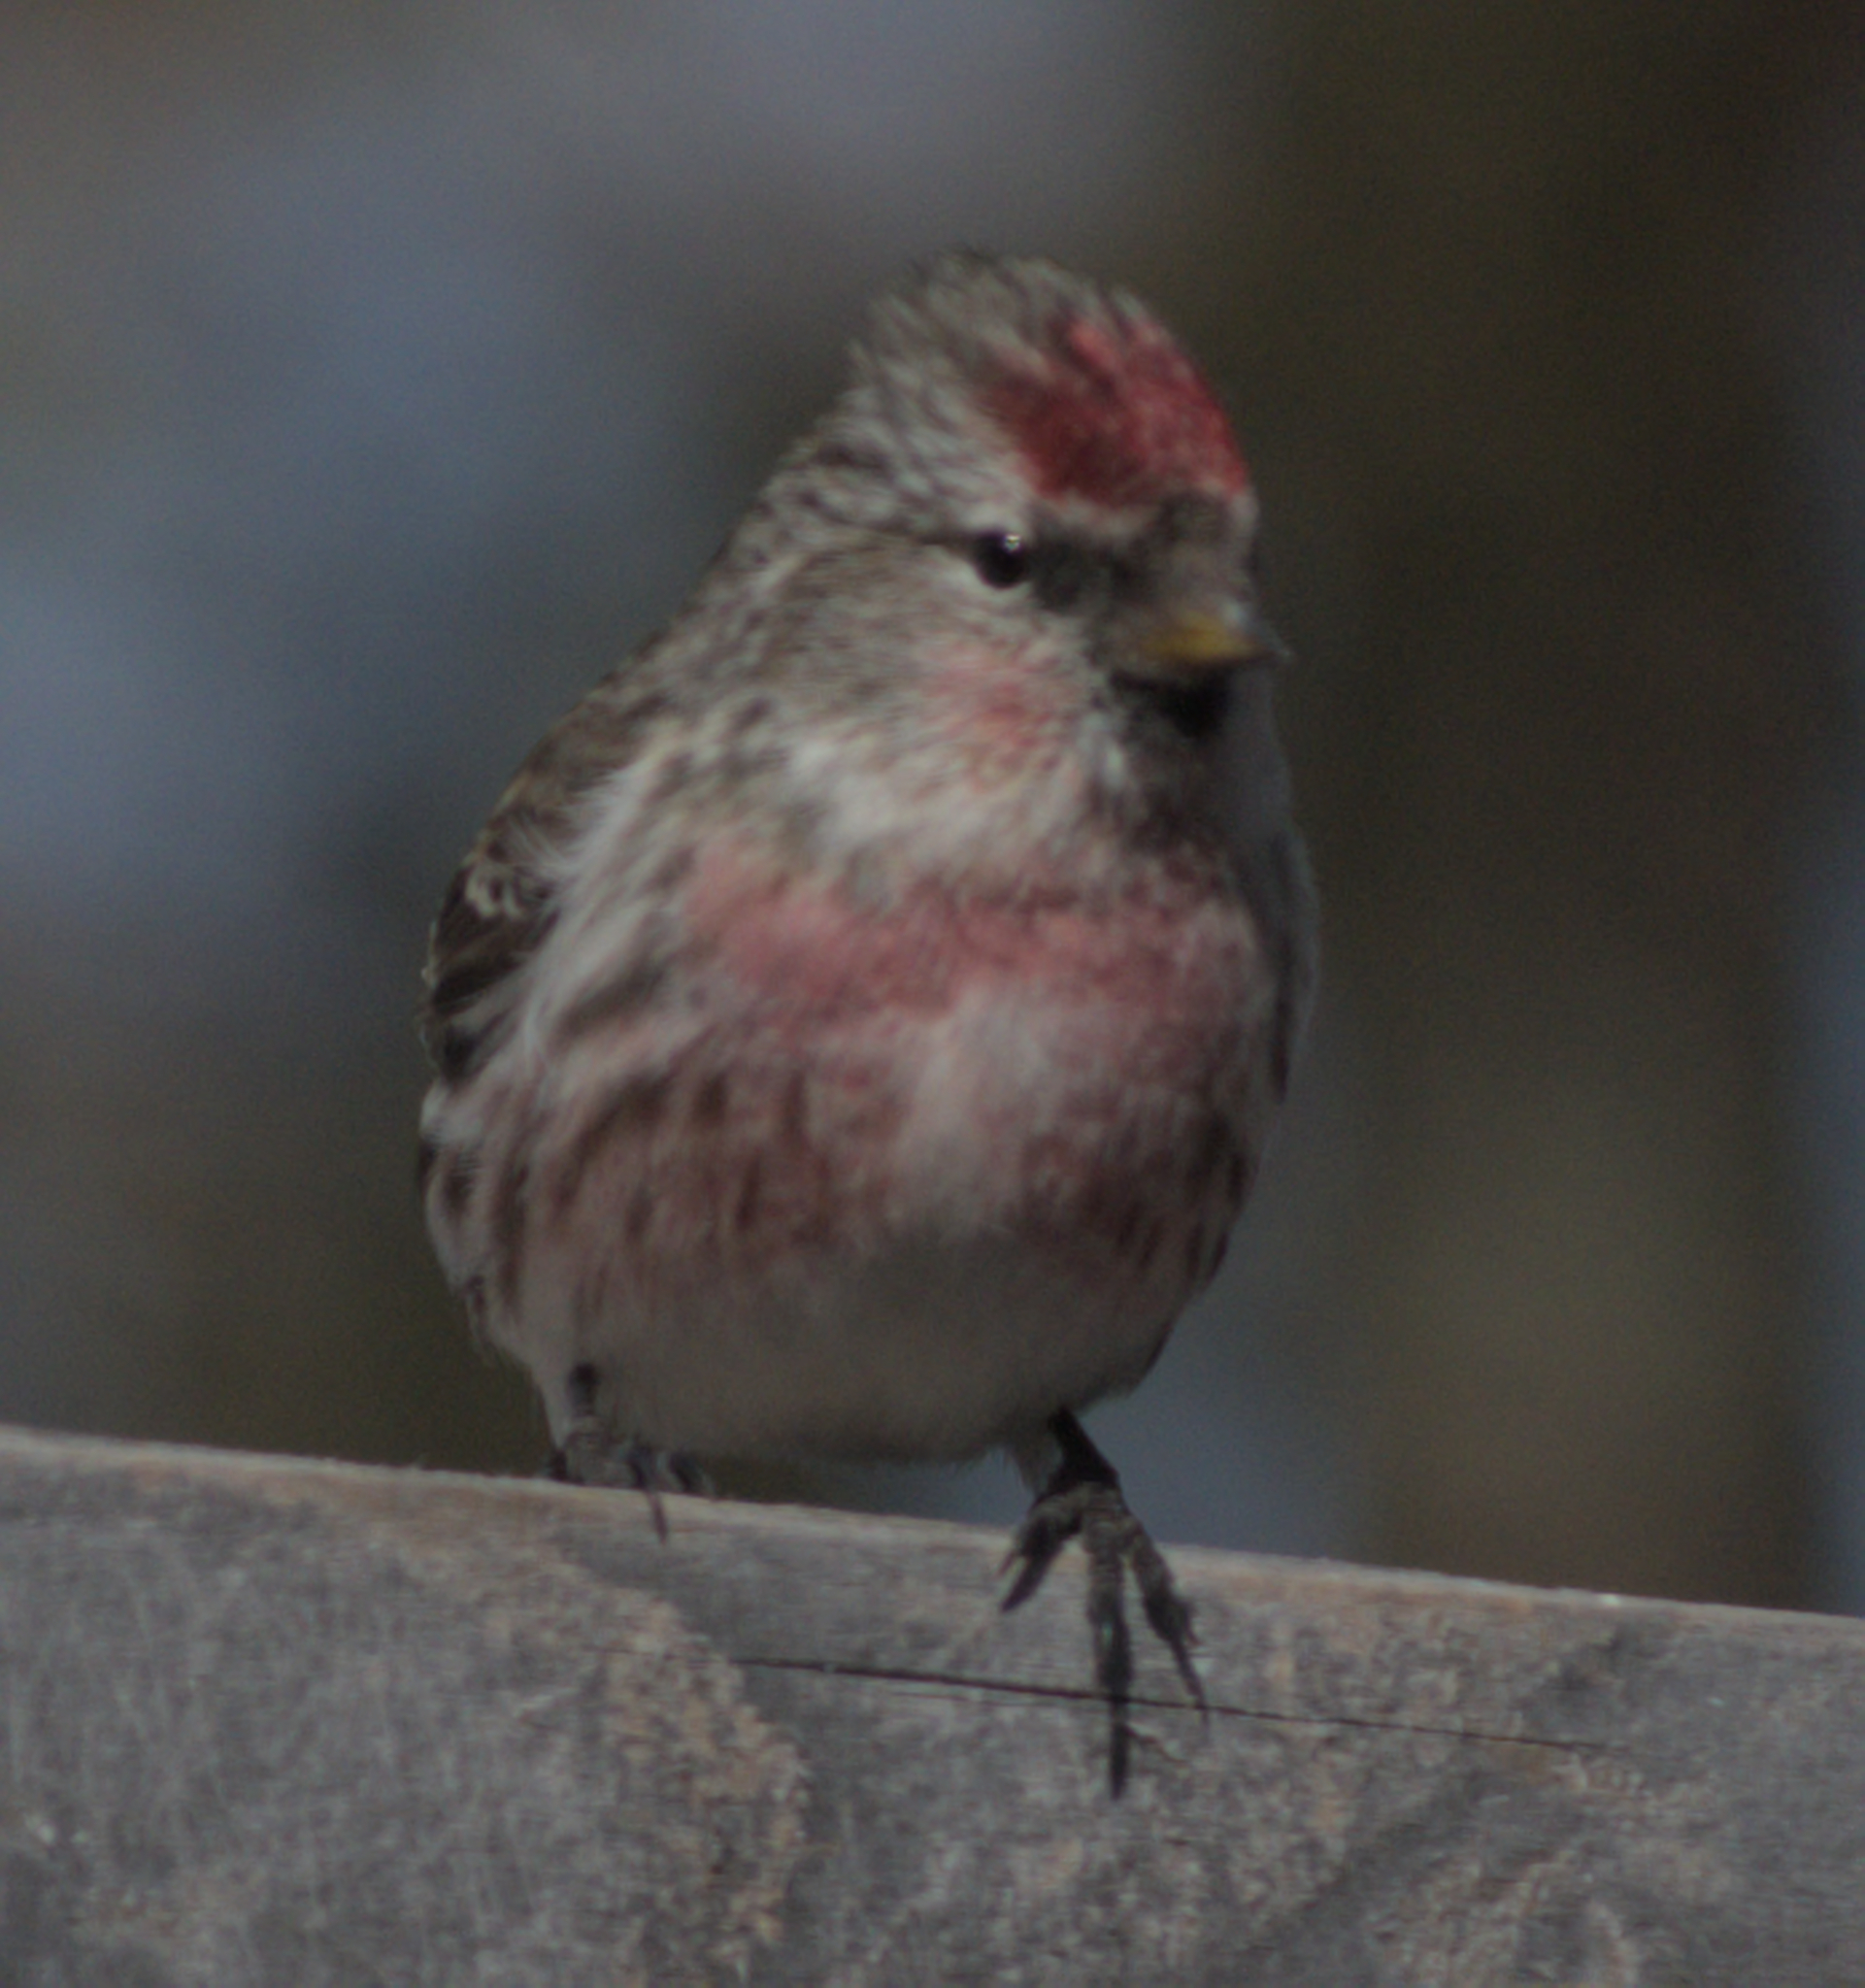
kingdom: Animalia
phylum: Chordata
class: Aves
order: Passeriformes
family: Fringillidae
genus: Acanthis
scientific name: Acanthis flammea
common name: Common redpoll
